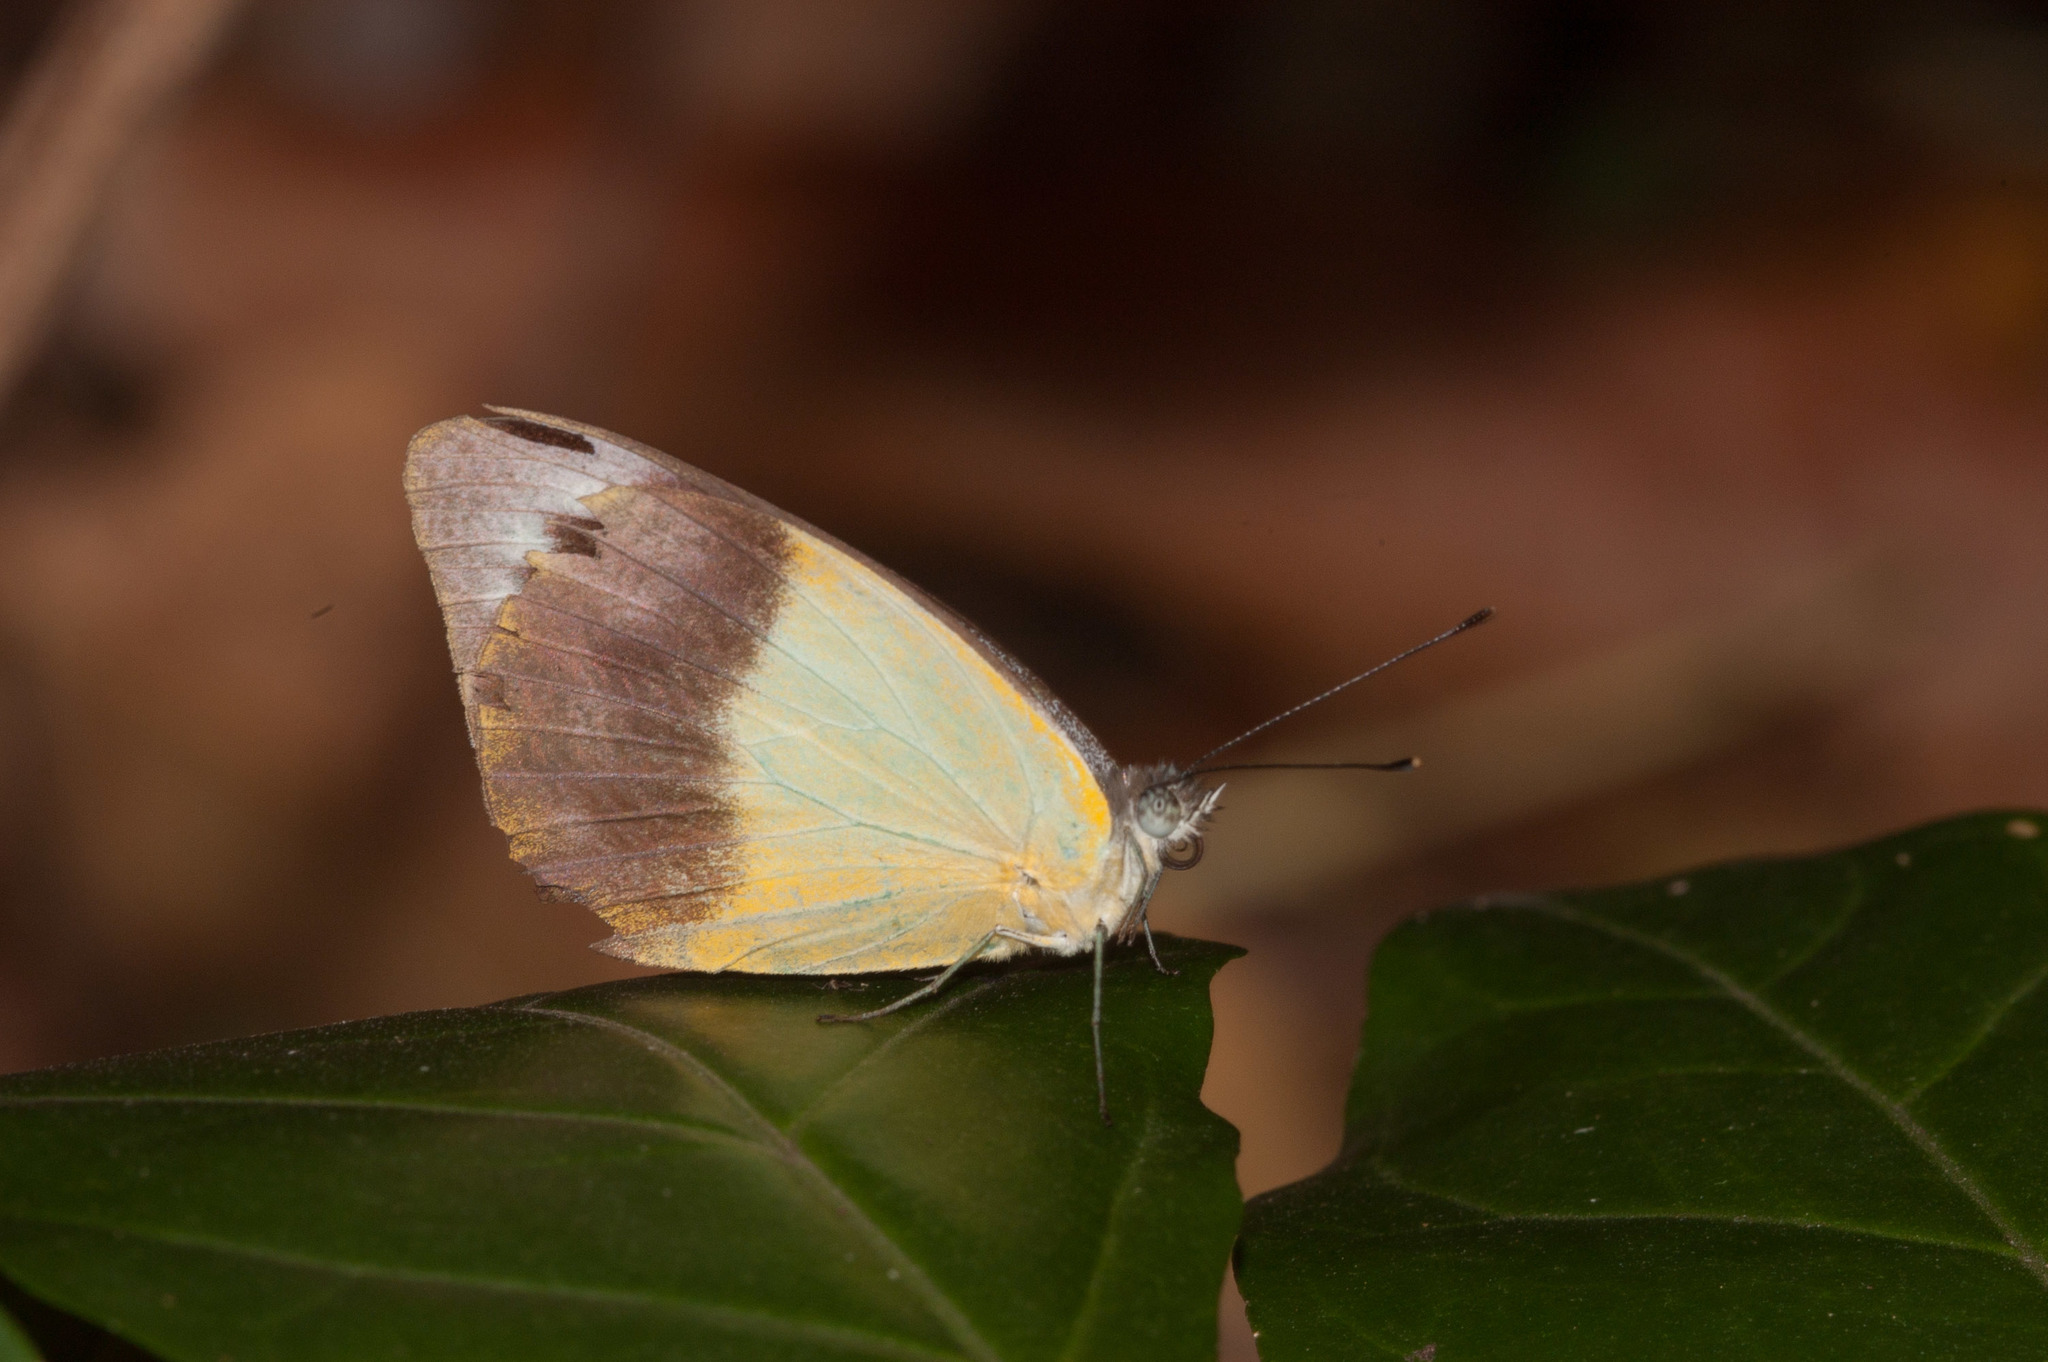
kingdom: Animalia
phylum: Arthropoda
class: Insecta
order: Lepidoptera
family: Pieridae
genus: Appias
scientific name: Appias paulina
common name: Ceylon lesser albatross
